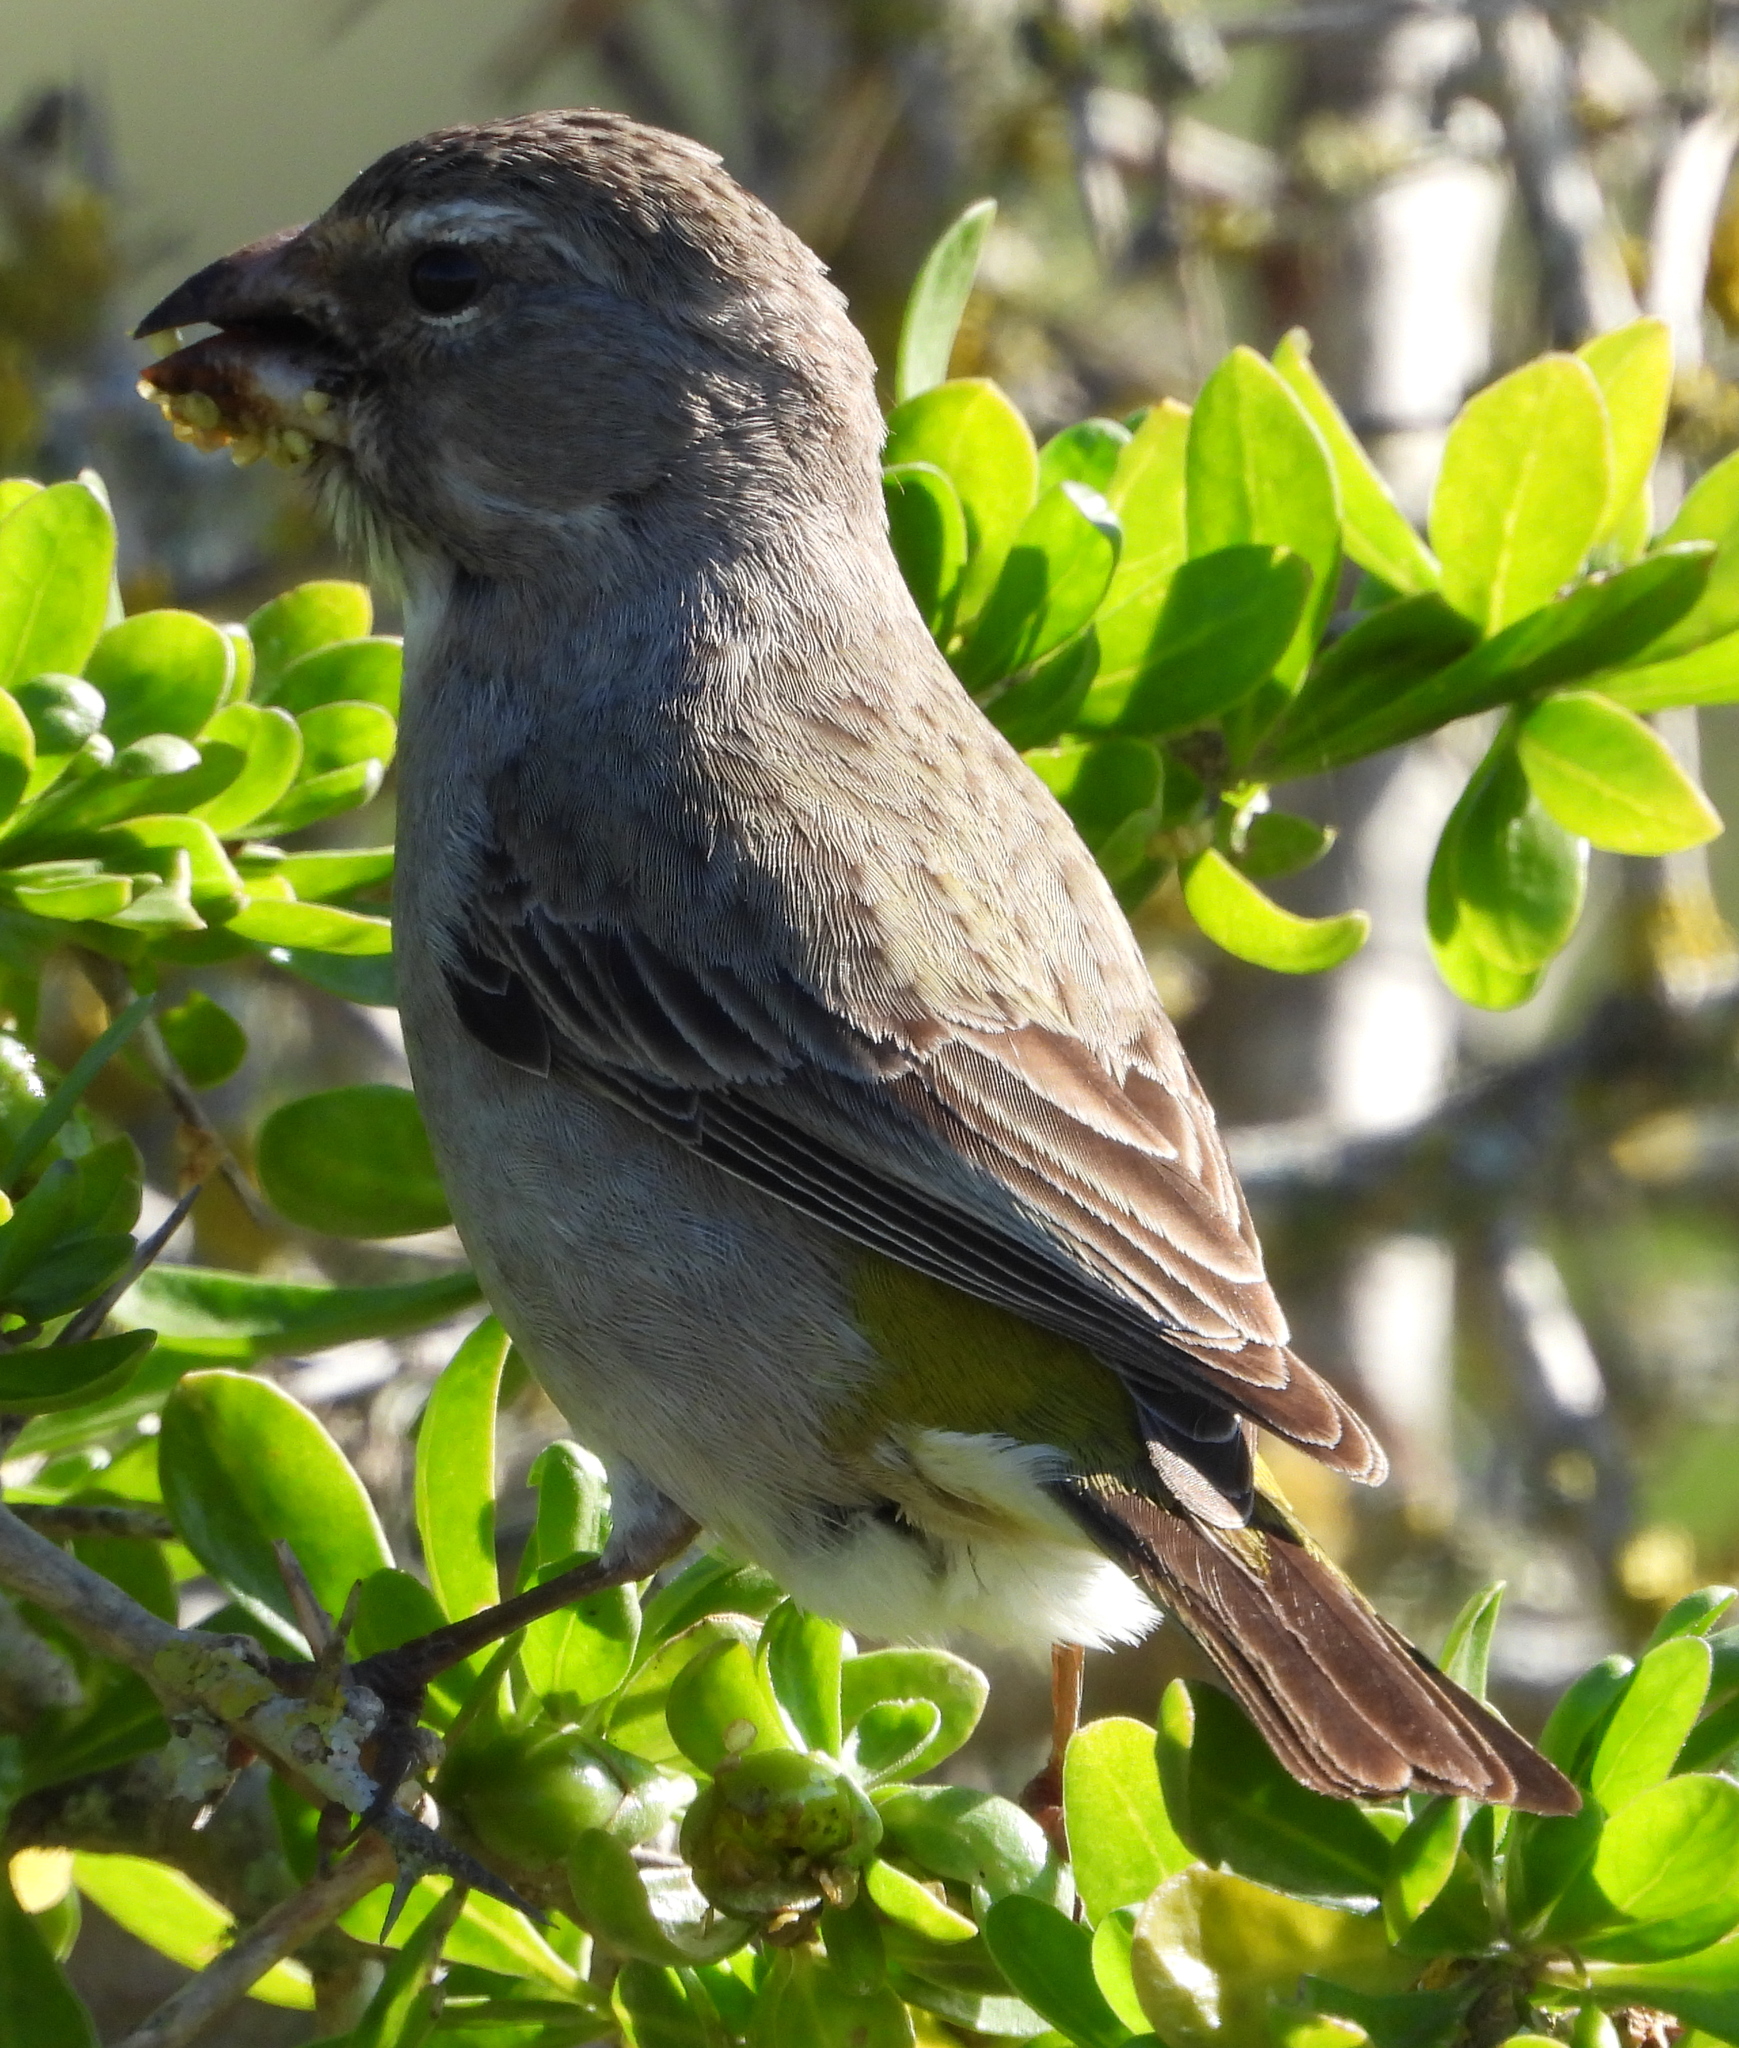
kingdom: Animalia
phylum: Chordata
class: Aves
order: Passeriformes
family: Fringillidae
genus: Crithagra
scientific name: Crithagra albogularis
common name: White-throated canary
